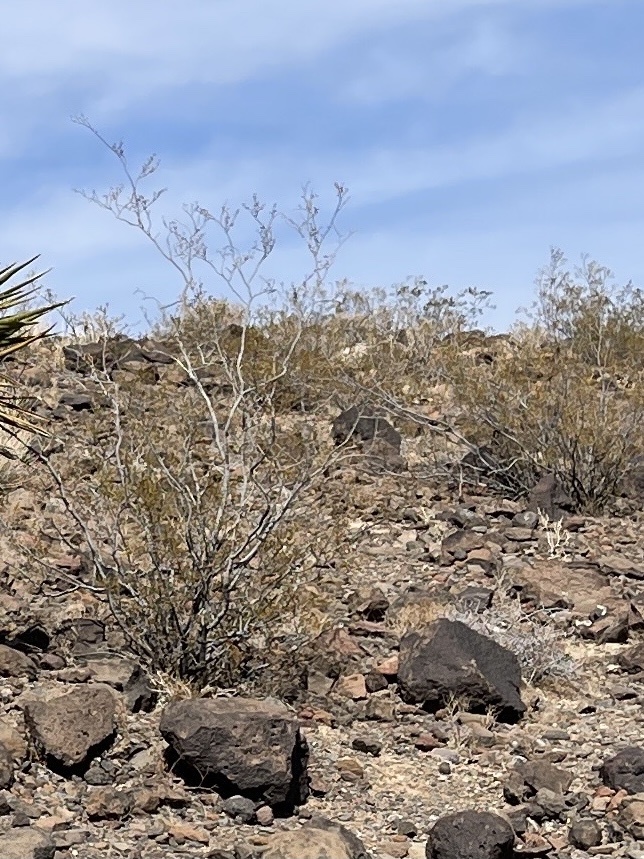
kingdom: Plantae
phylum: Tracheophyta
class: Magnoliopsida
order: Zygophyllales
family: Zygophyllaceae
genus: Larrea
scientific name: Larrea tridentata
